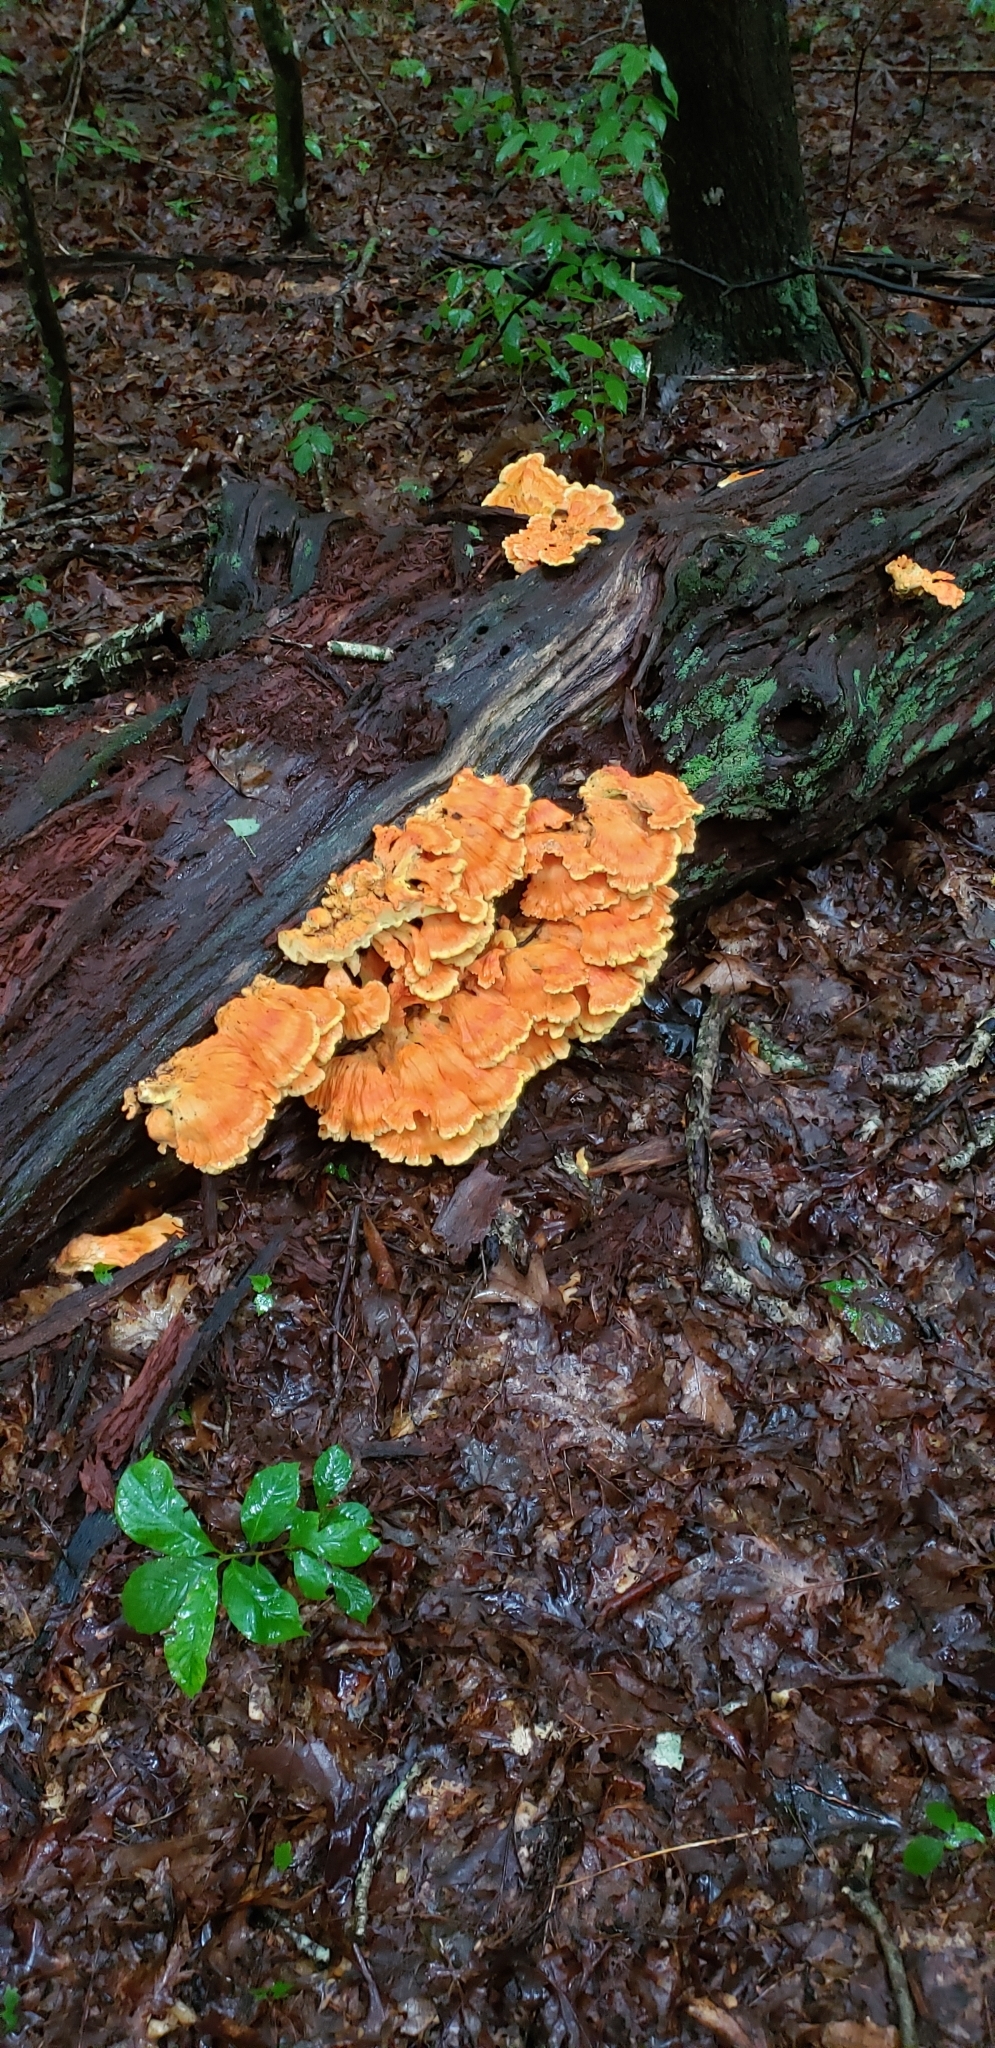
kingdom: Fungi
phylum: Basidiomycota
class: Agaricomycetes
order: Polyporales
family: Laetiporaceae
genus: Laetiporus
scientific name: Laetiporus sulphureus
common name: Chicken of the woods
